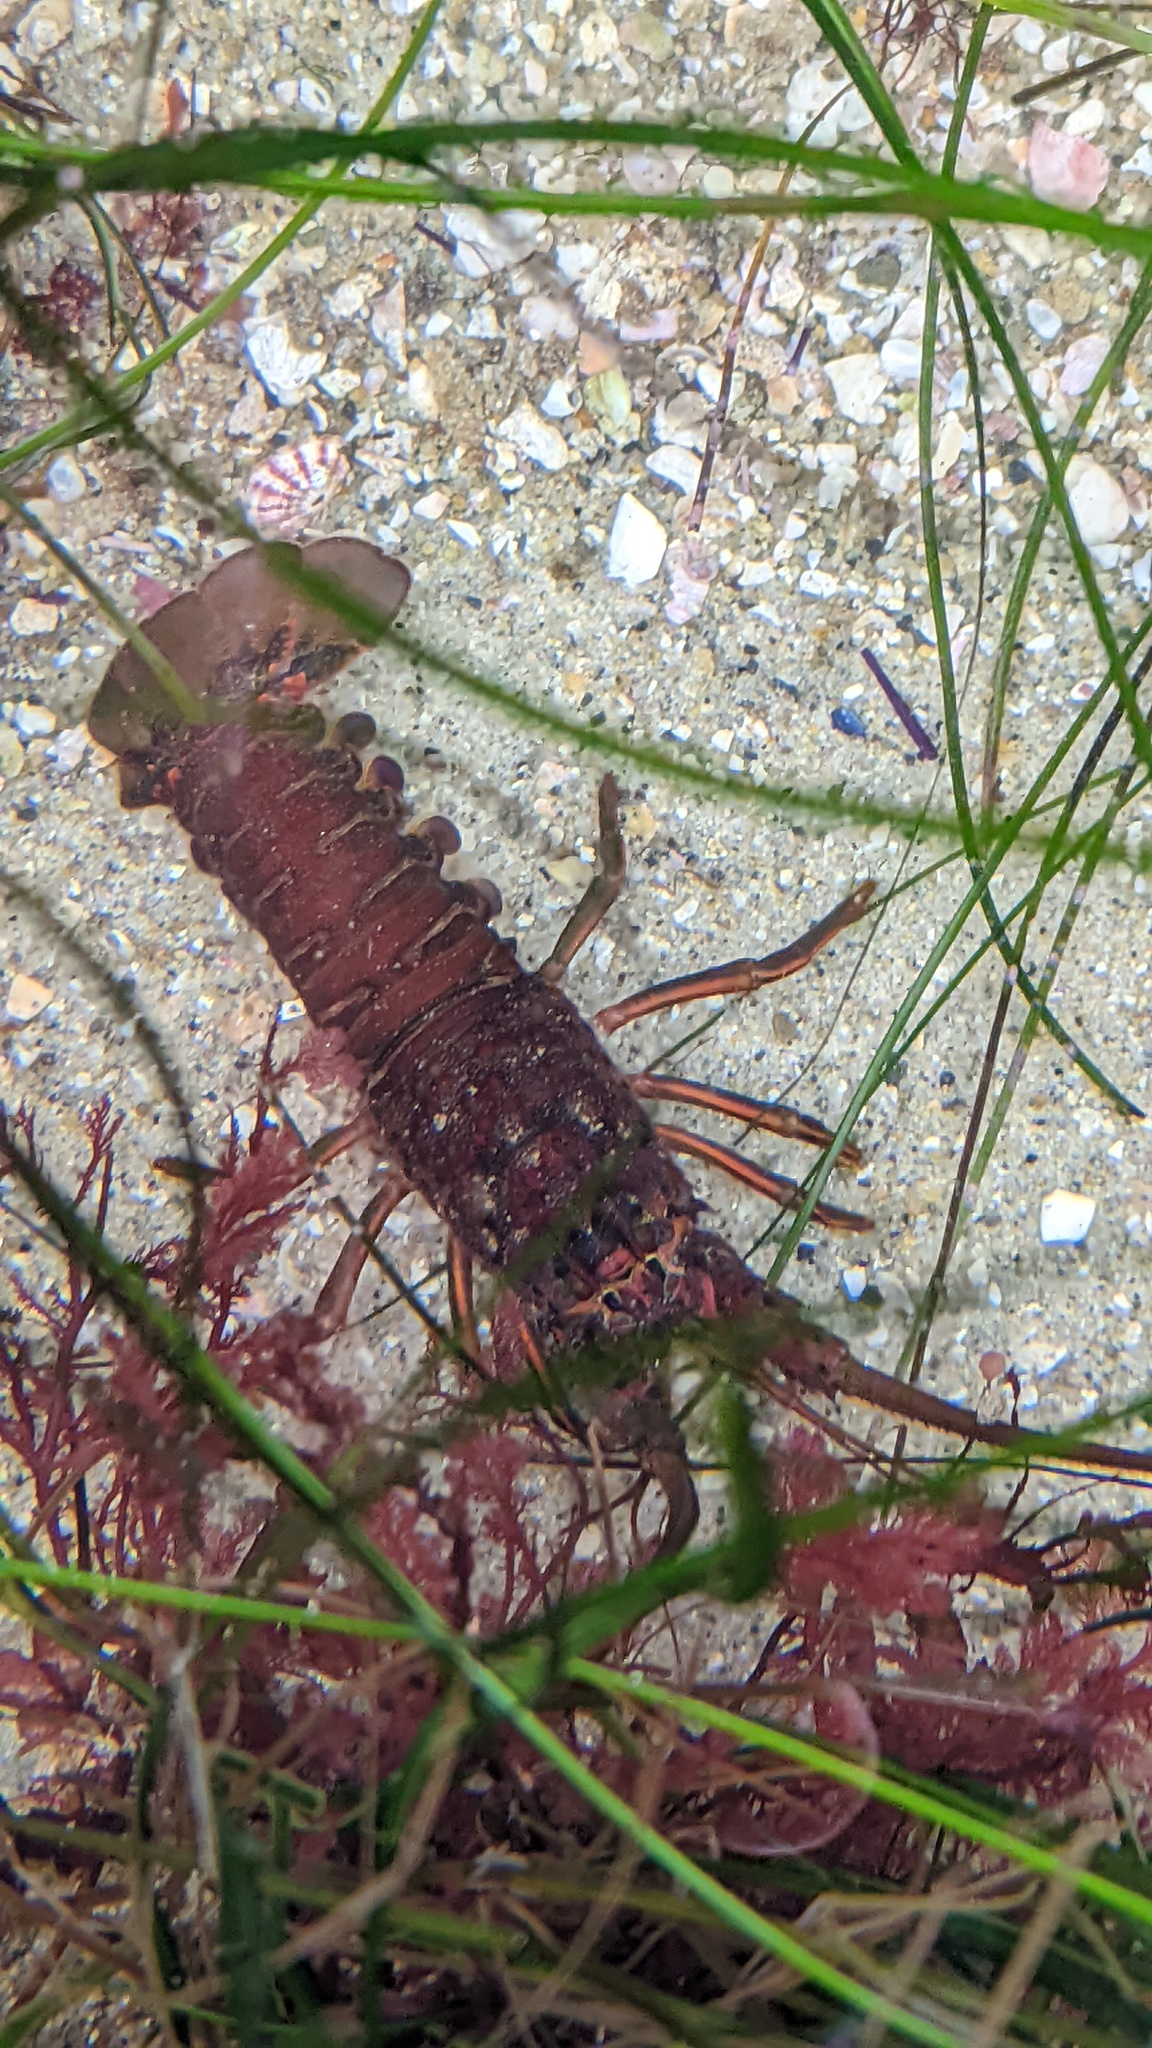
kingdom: Animalia
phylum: Arthropoda
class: Malacostraca
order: Decapoda
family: Palinuridae
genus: Panulirus
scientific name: Panulirus interruptus
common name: California spiny lobster
